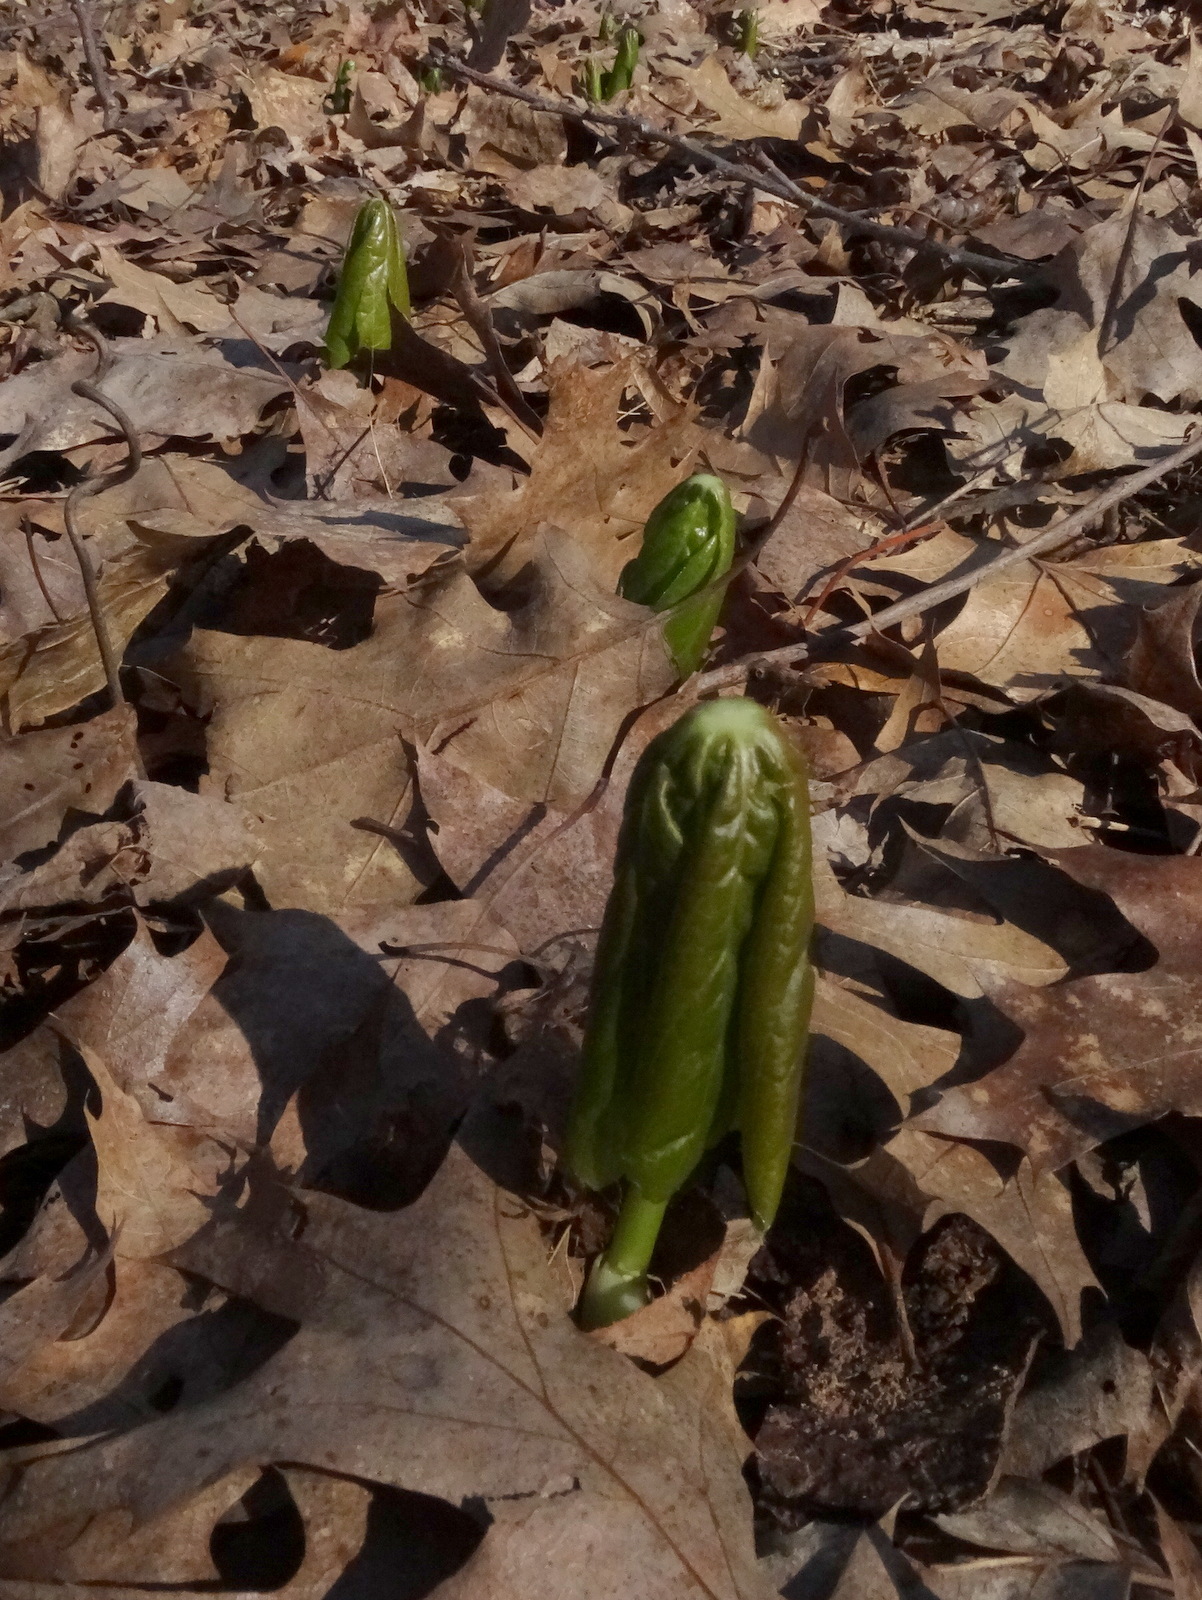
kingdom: Plantae
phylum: Tracheophyta
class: Magnoliopsida
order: Ranunculales
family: Berberidaceae
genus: Podophyllum
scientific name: Podophyllum peltatum
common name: Wild mandrake
